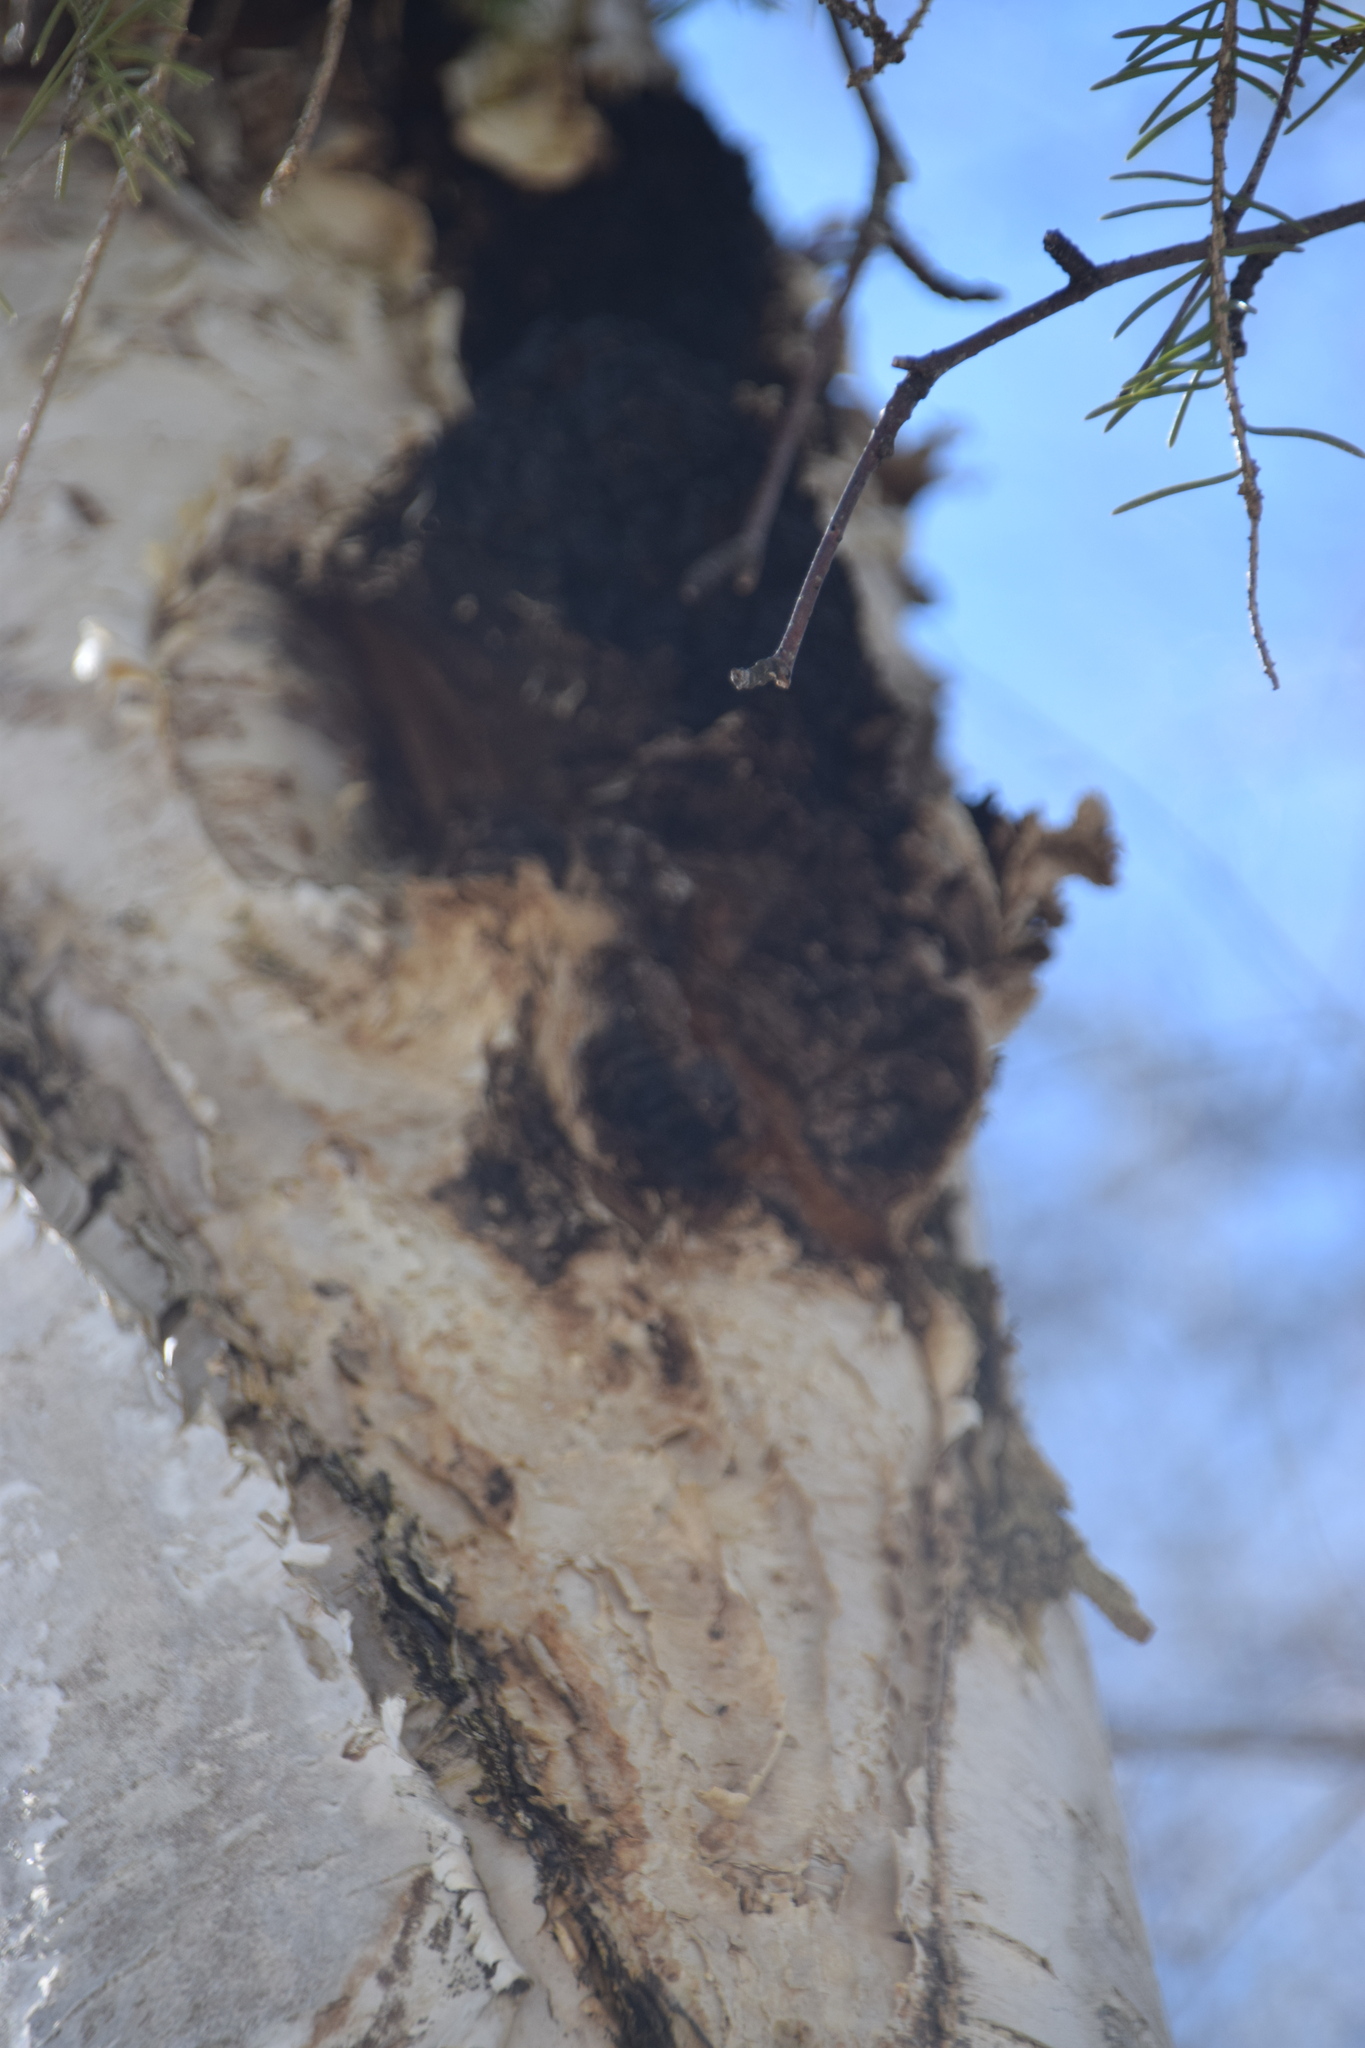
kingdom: Fungi
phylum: Basidiomycota
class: Agaricomycetes
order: Hymenochaetales
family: Hymenochaetaceae
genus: Inonotus
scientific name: Inonotus obliquus
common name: Chaga
